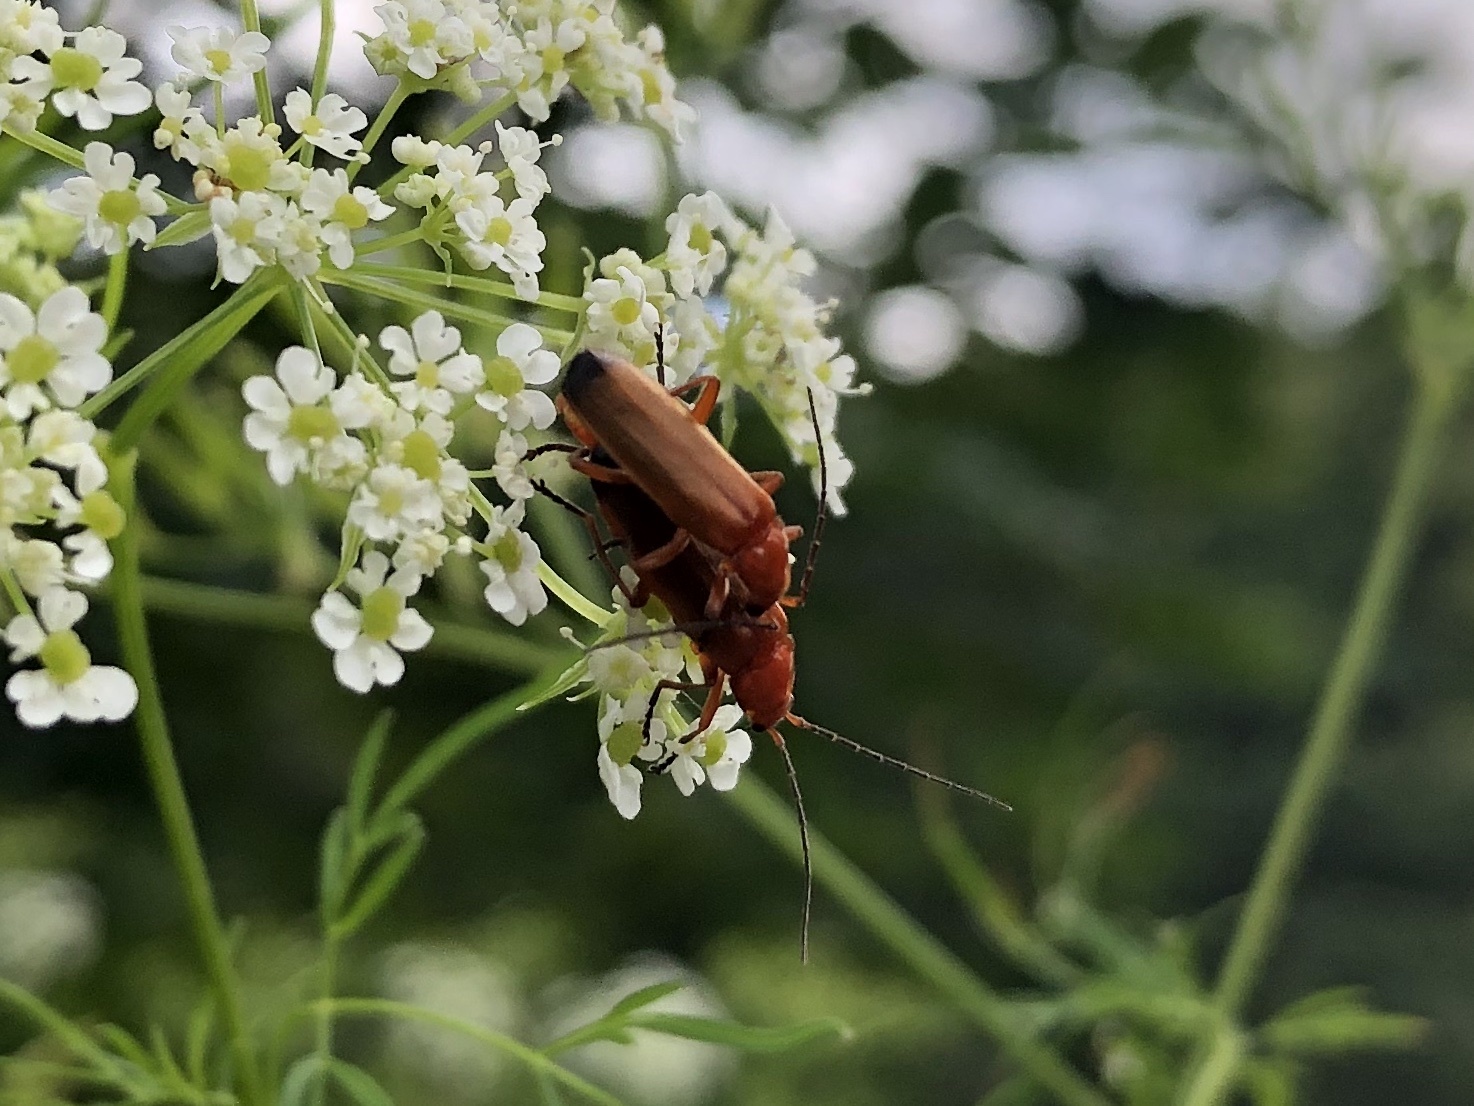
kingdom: Animalia
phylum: Arthropoda
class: Insecta
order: Coleoptera
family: Cantharidae
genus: Rhagonycha
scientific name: Rhagonycha fulva
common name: Common red soldier beetle
